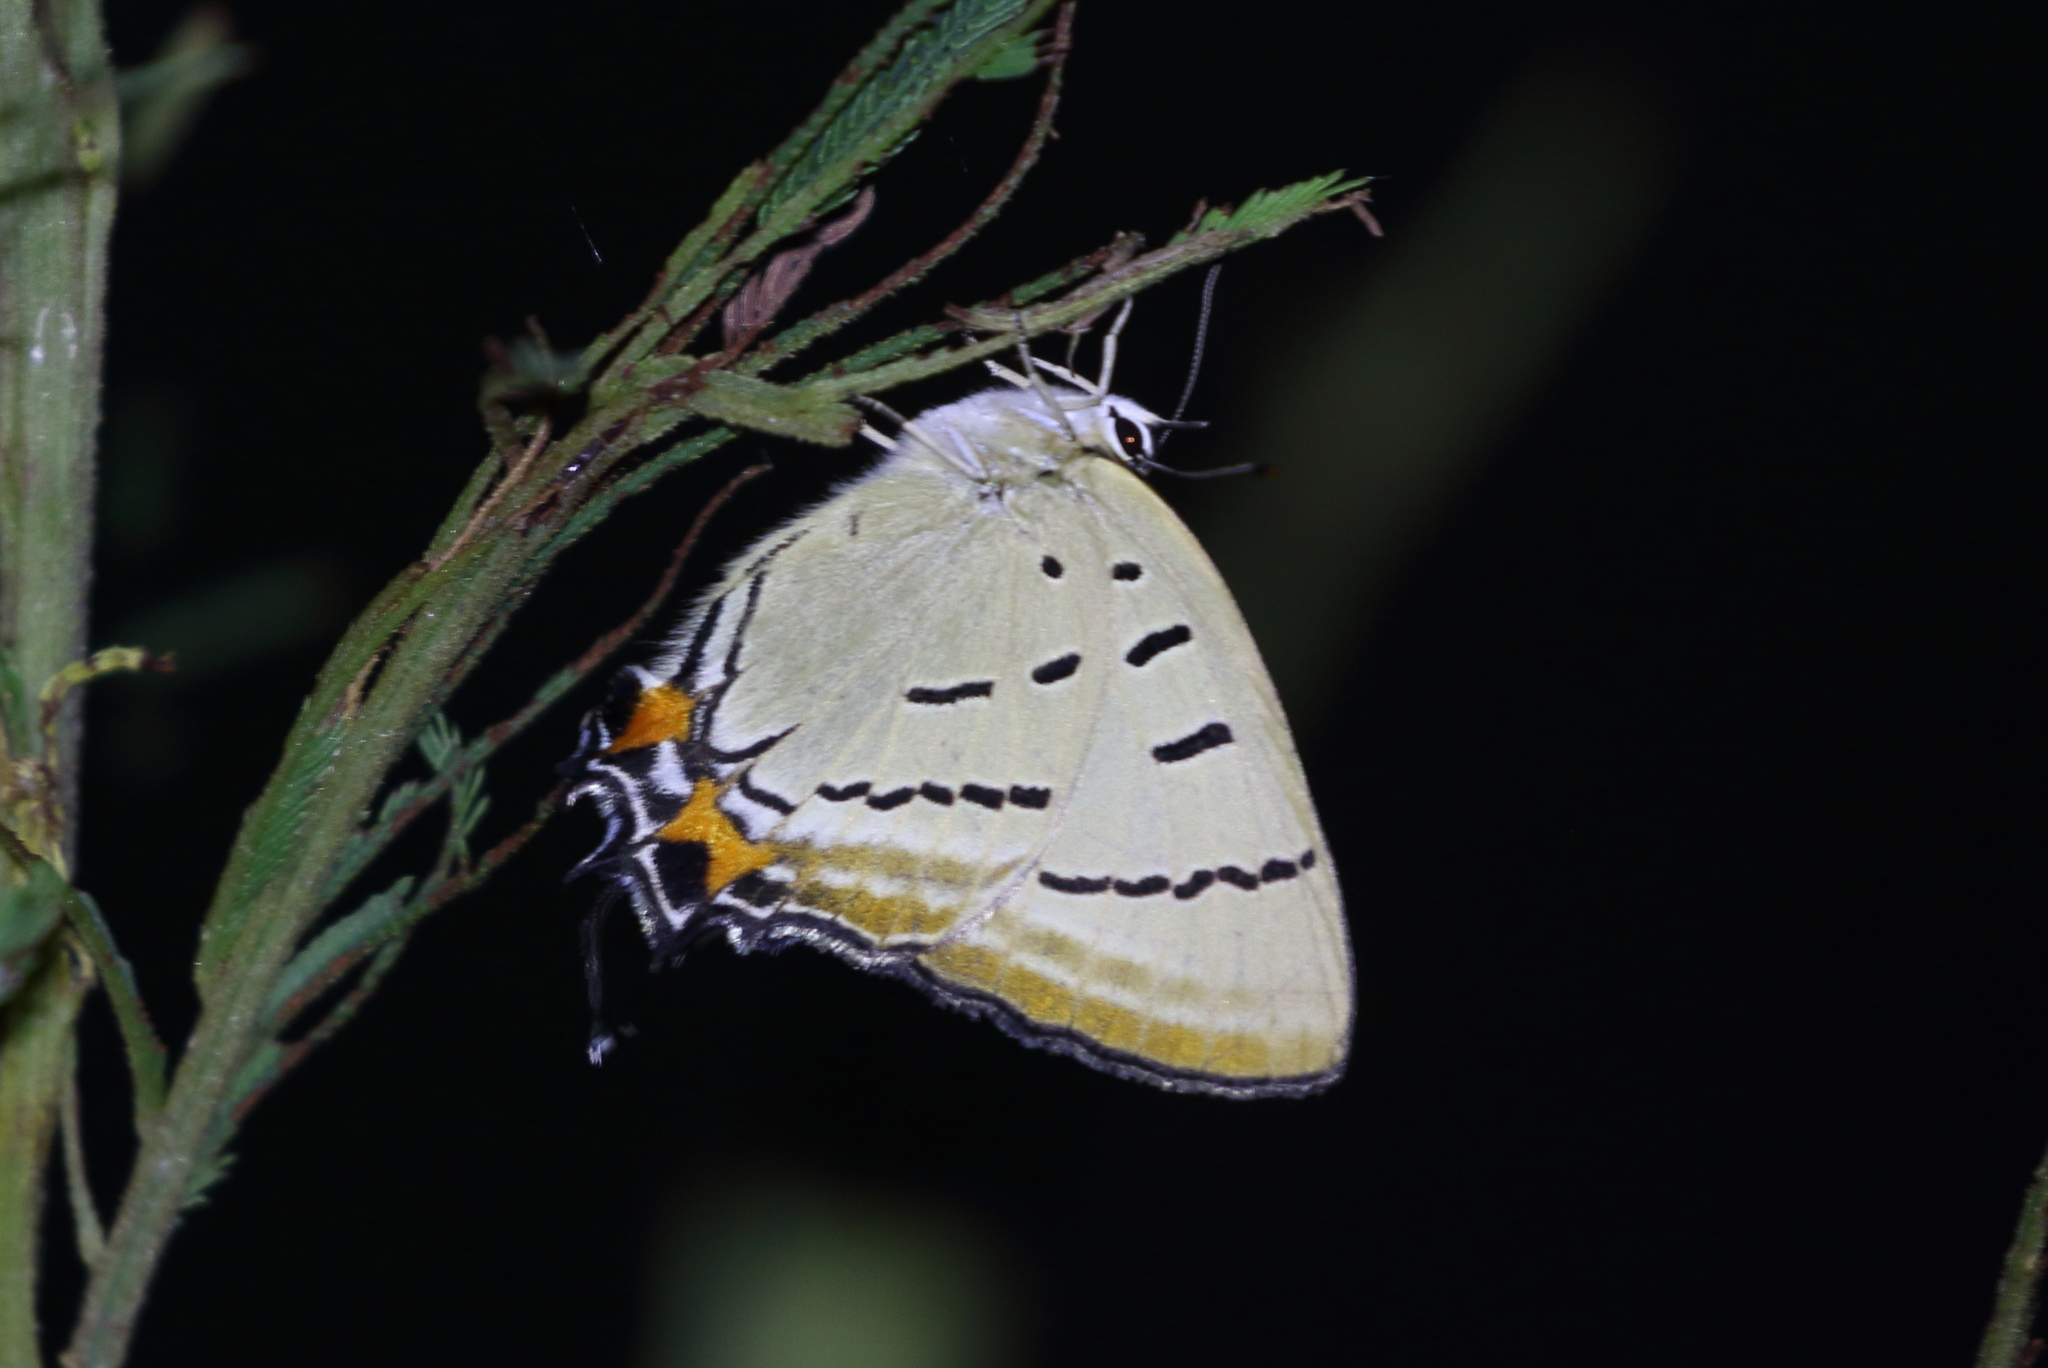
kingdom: Animalia
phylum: Arthropoda
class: Insecta
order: Lepidoptera
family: Lycaenidae
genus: Jalmenus
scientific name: Jalmenus evagoras
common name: Common imperial blue
